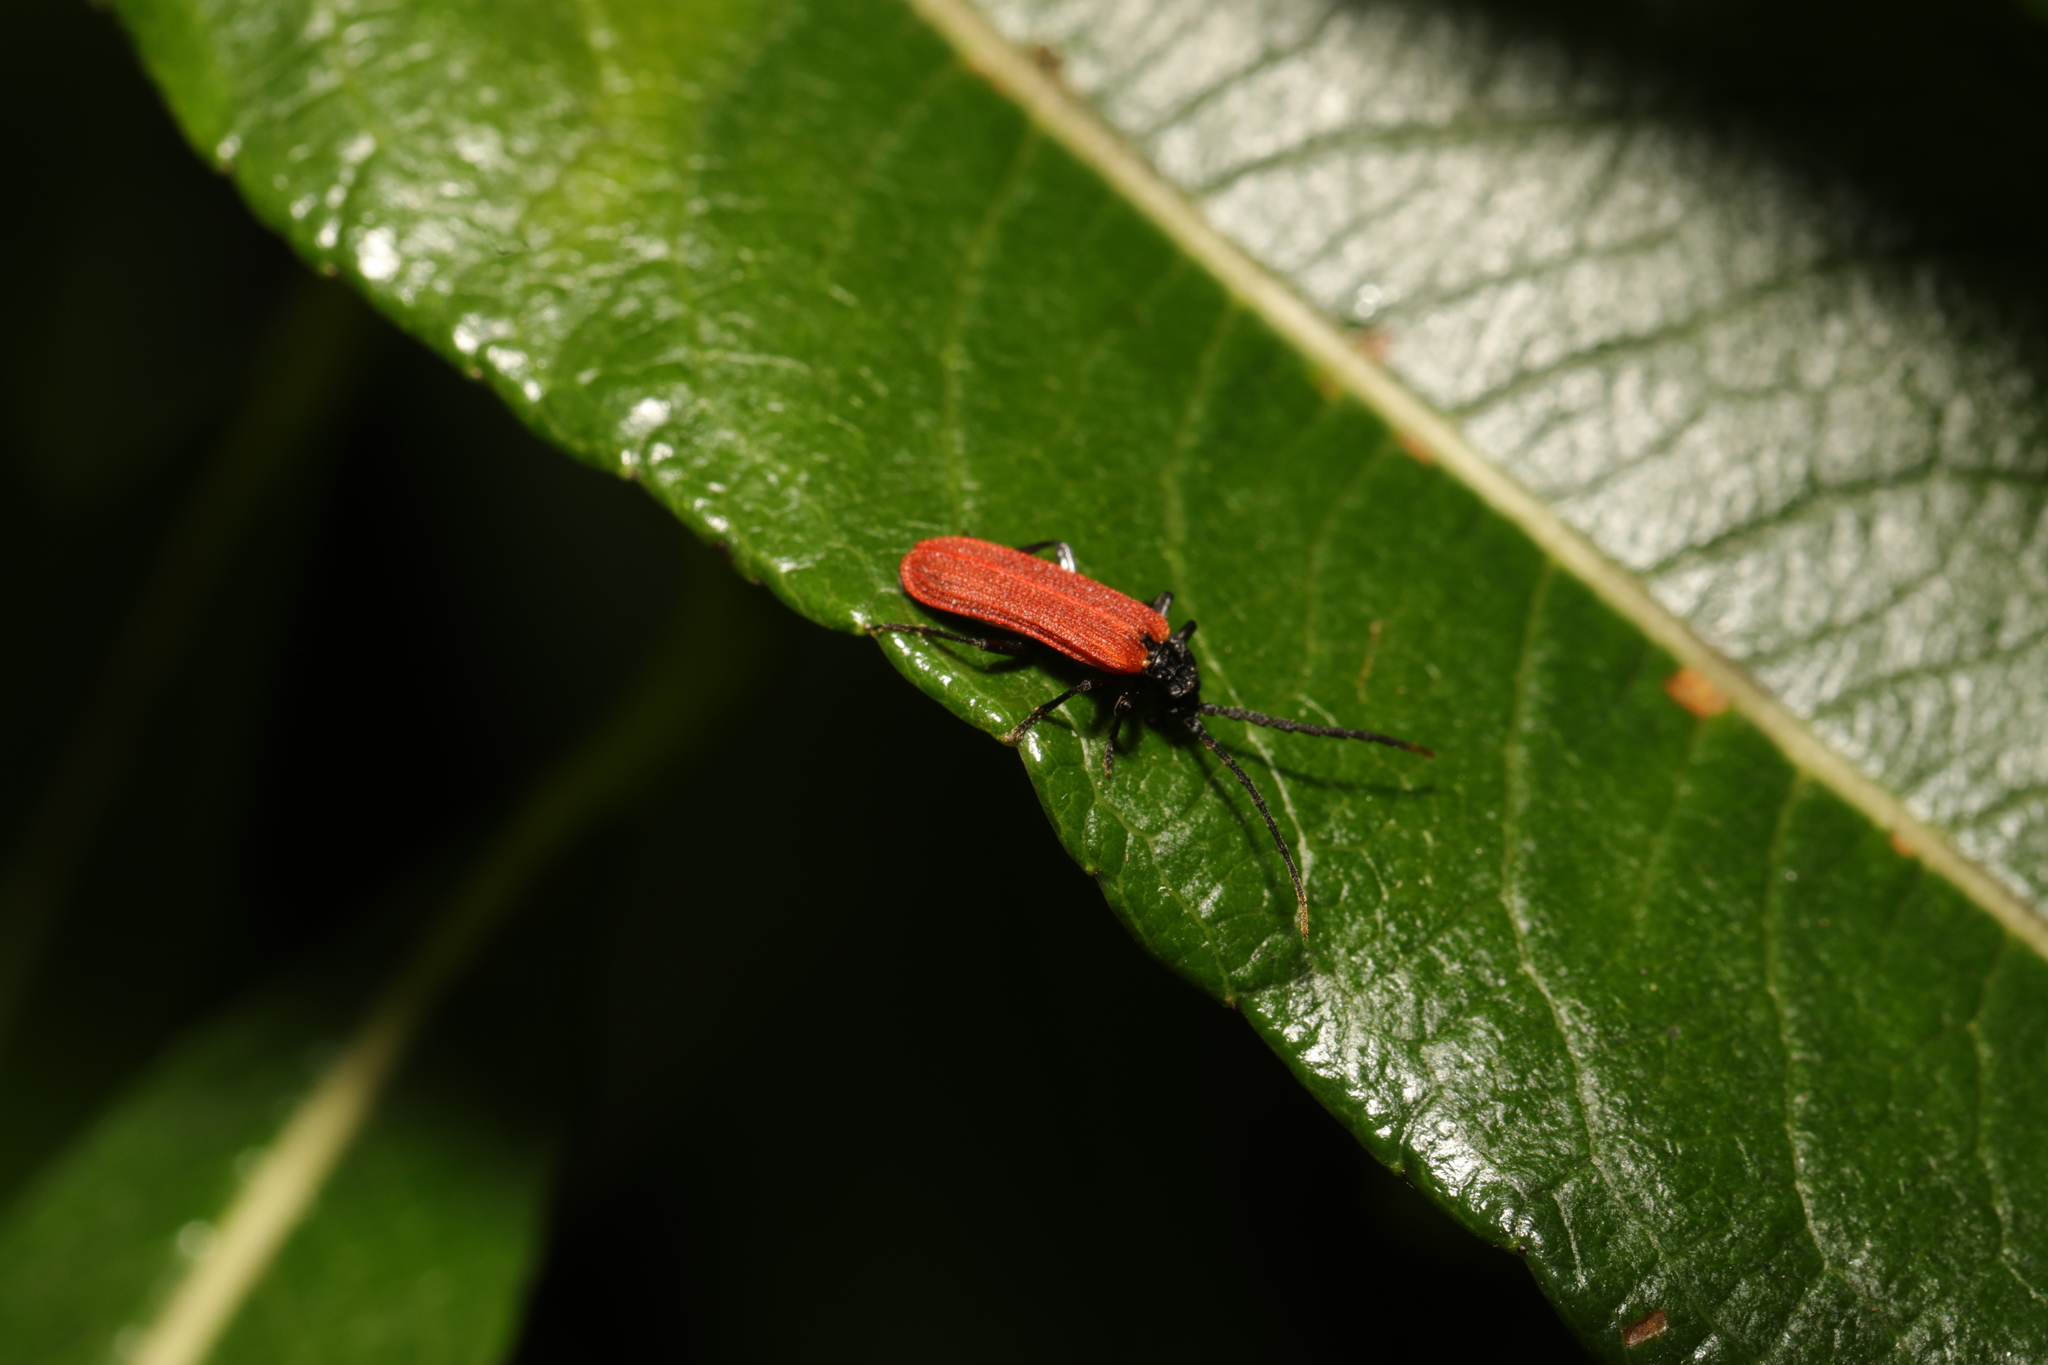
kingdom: Animalia
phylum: Arthropoda
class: Insecta
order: Coleoptera
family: Lycidae
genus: Platycis
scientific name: Platycis minutus
